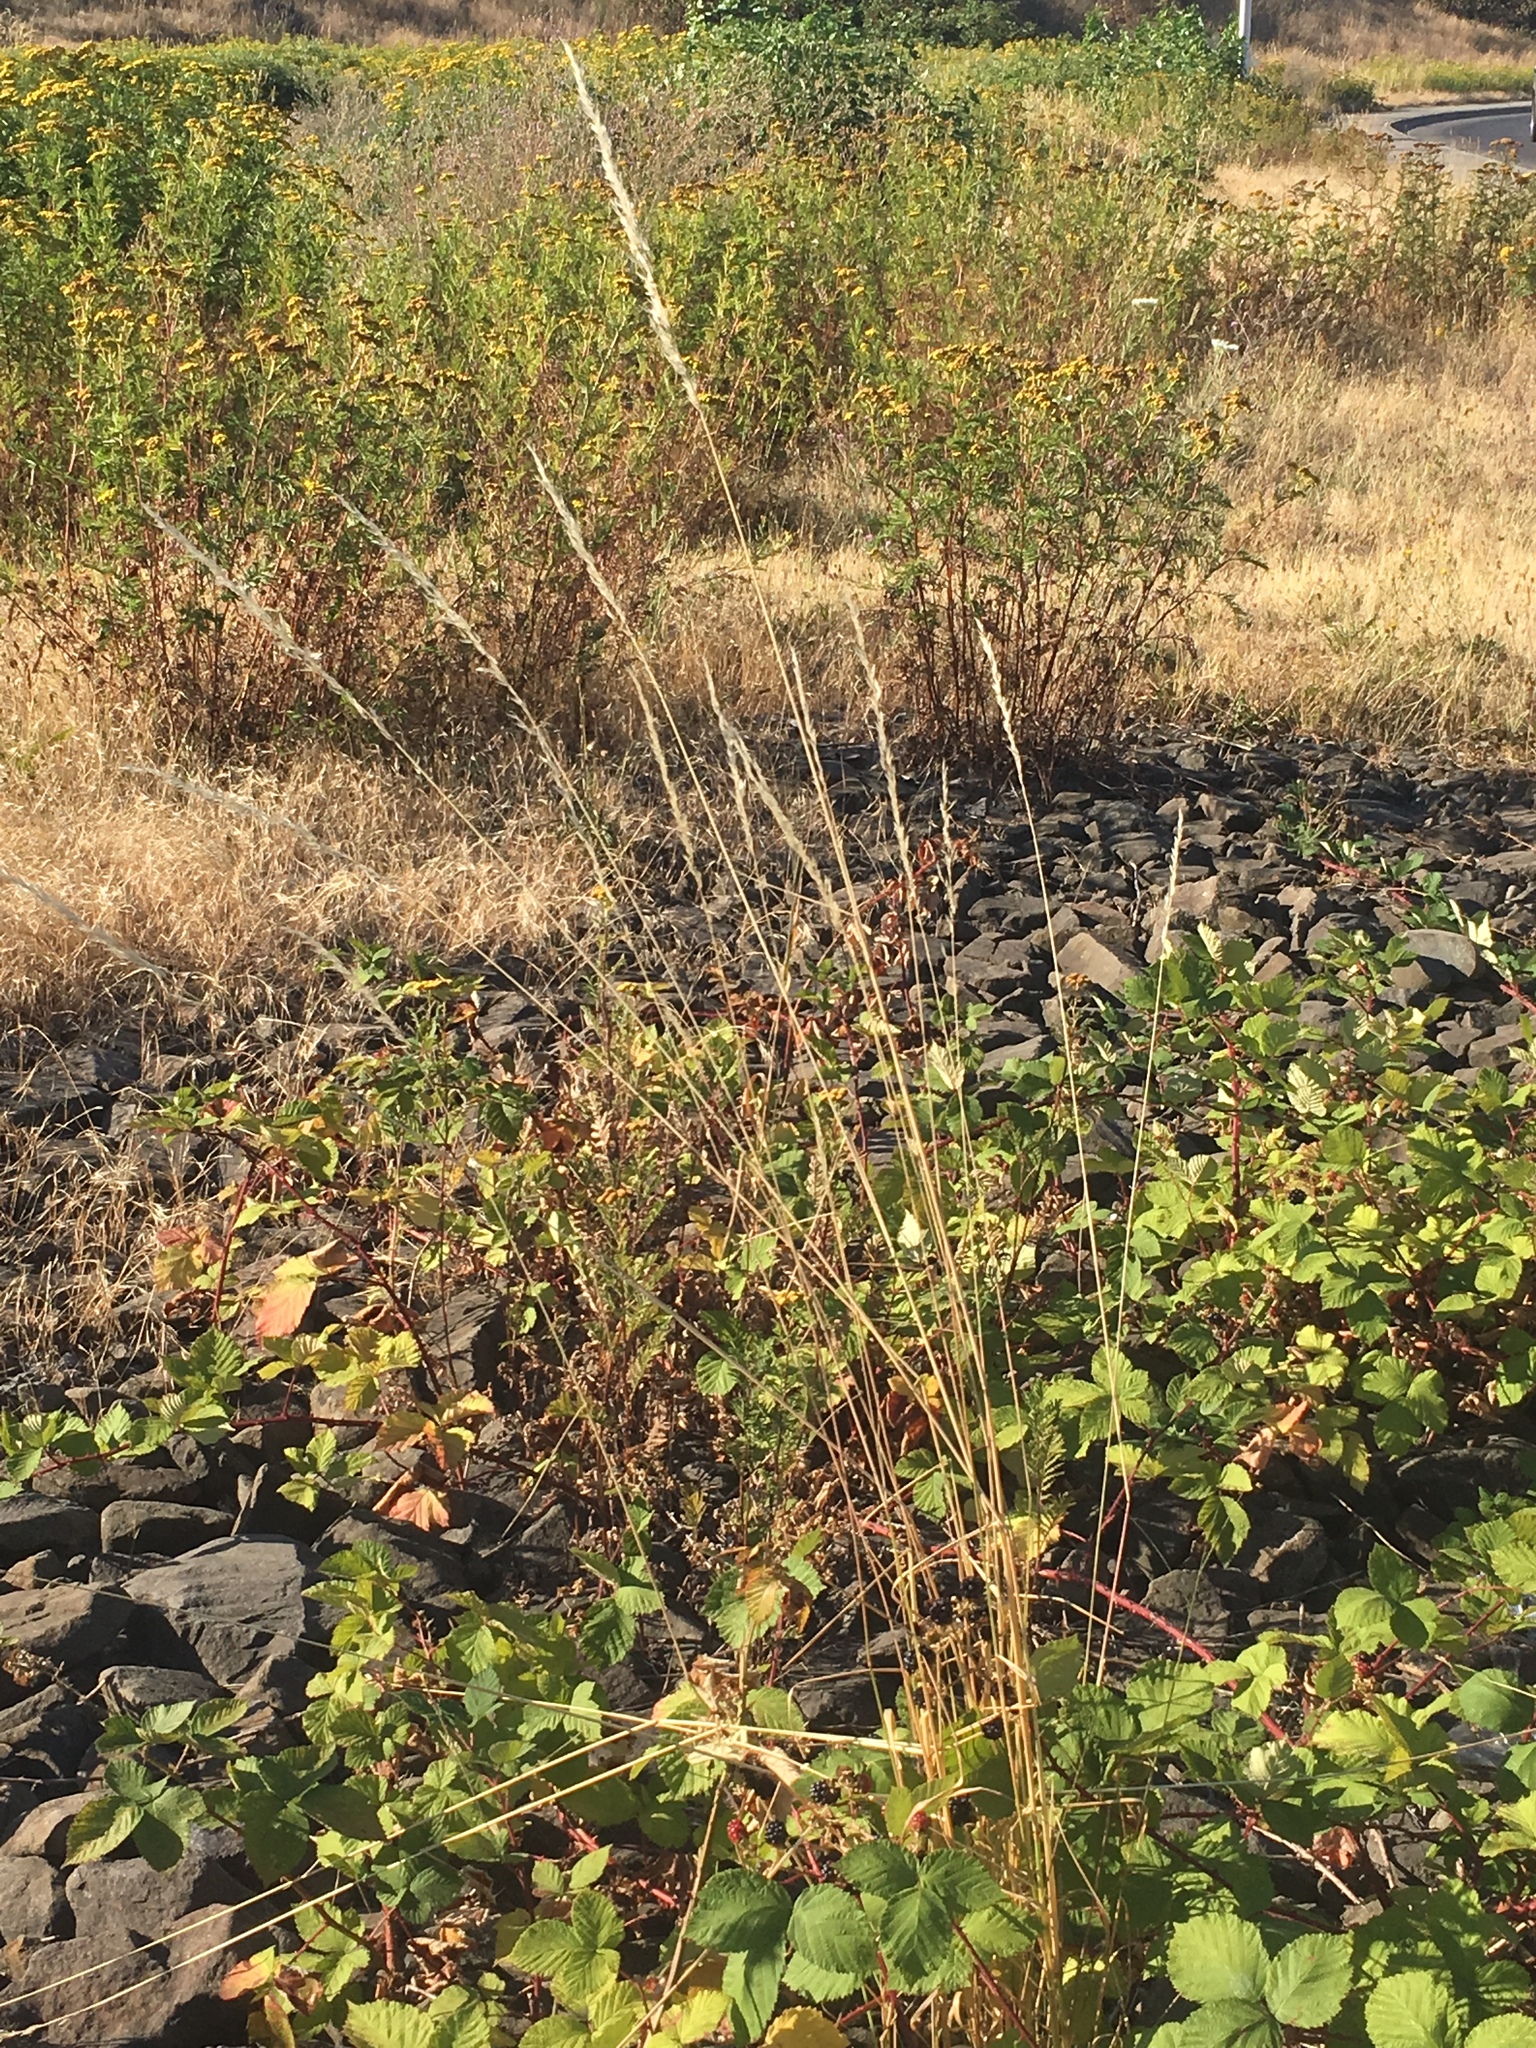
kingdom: Plantae
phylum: Tracheophyta
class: Liliopsida
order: Poales
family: Poaceae
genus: Arrhenatherum
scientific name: Arrhenatherum elatius
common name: Tall oatgrass
